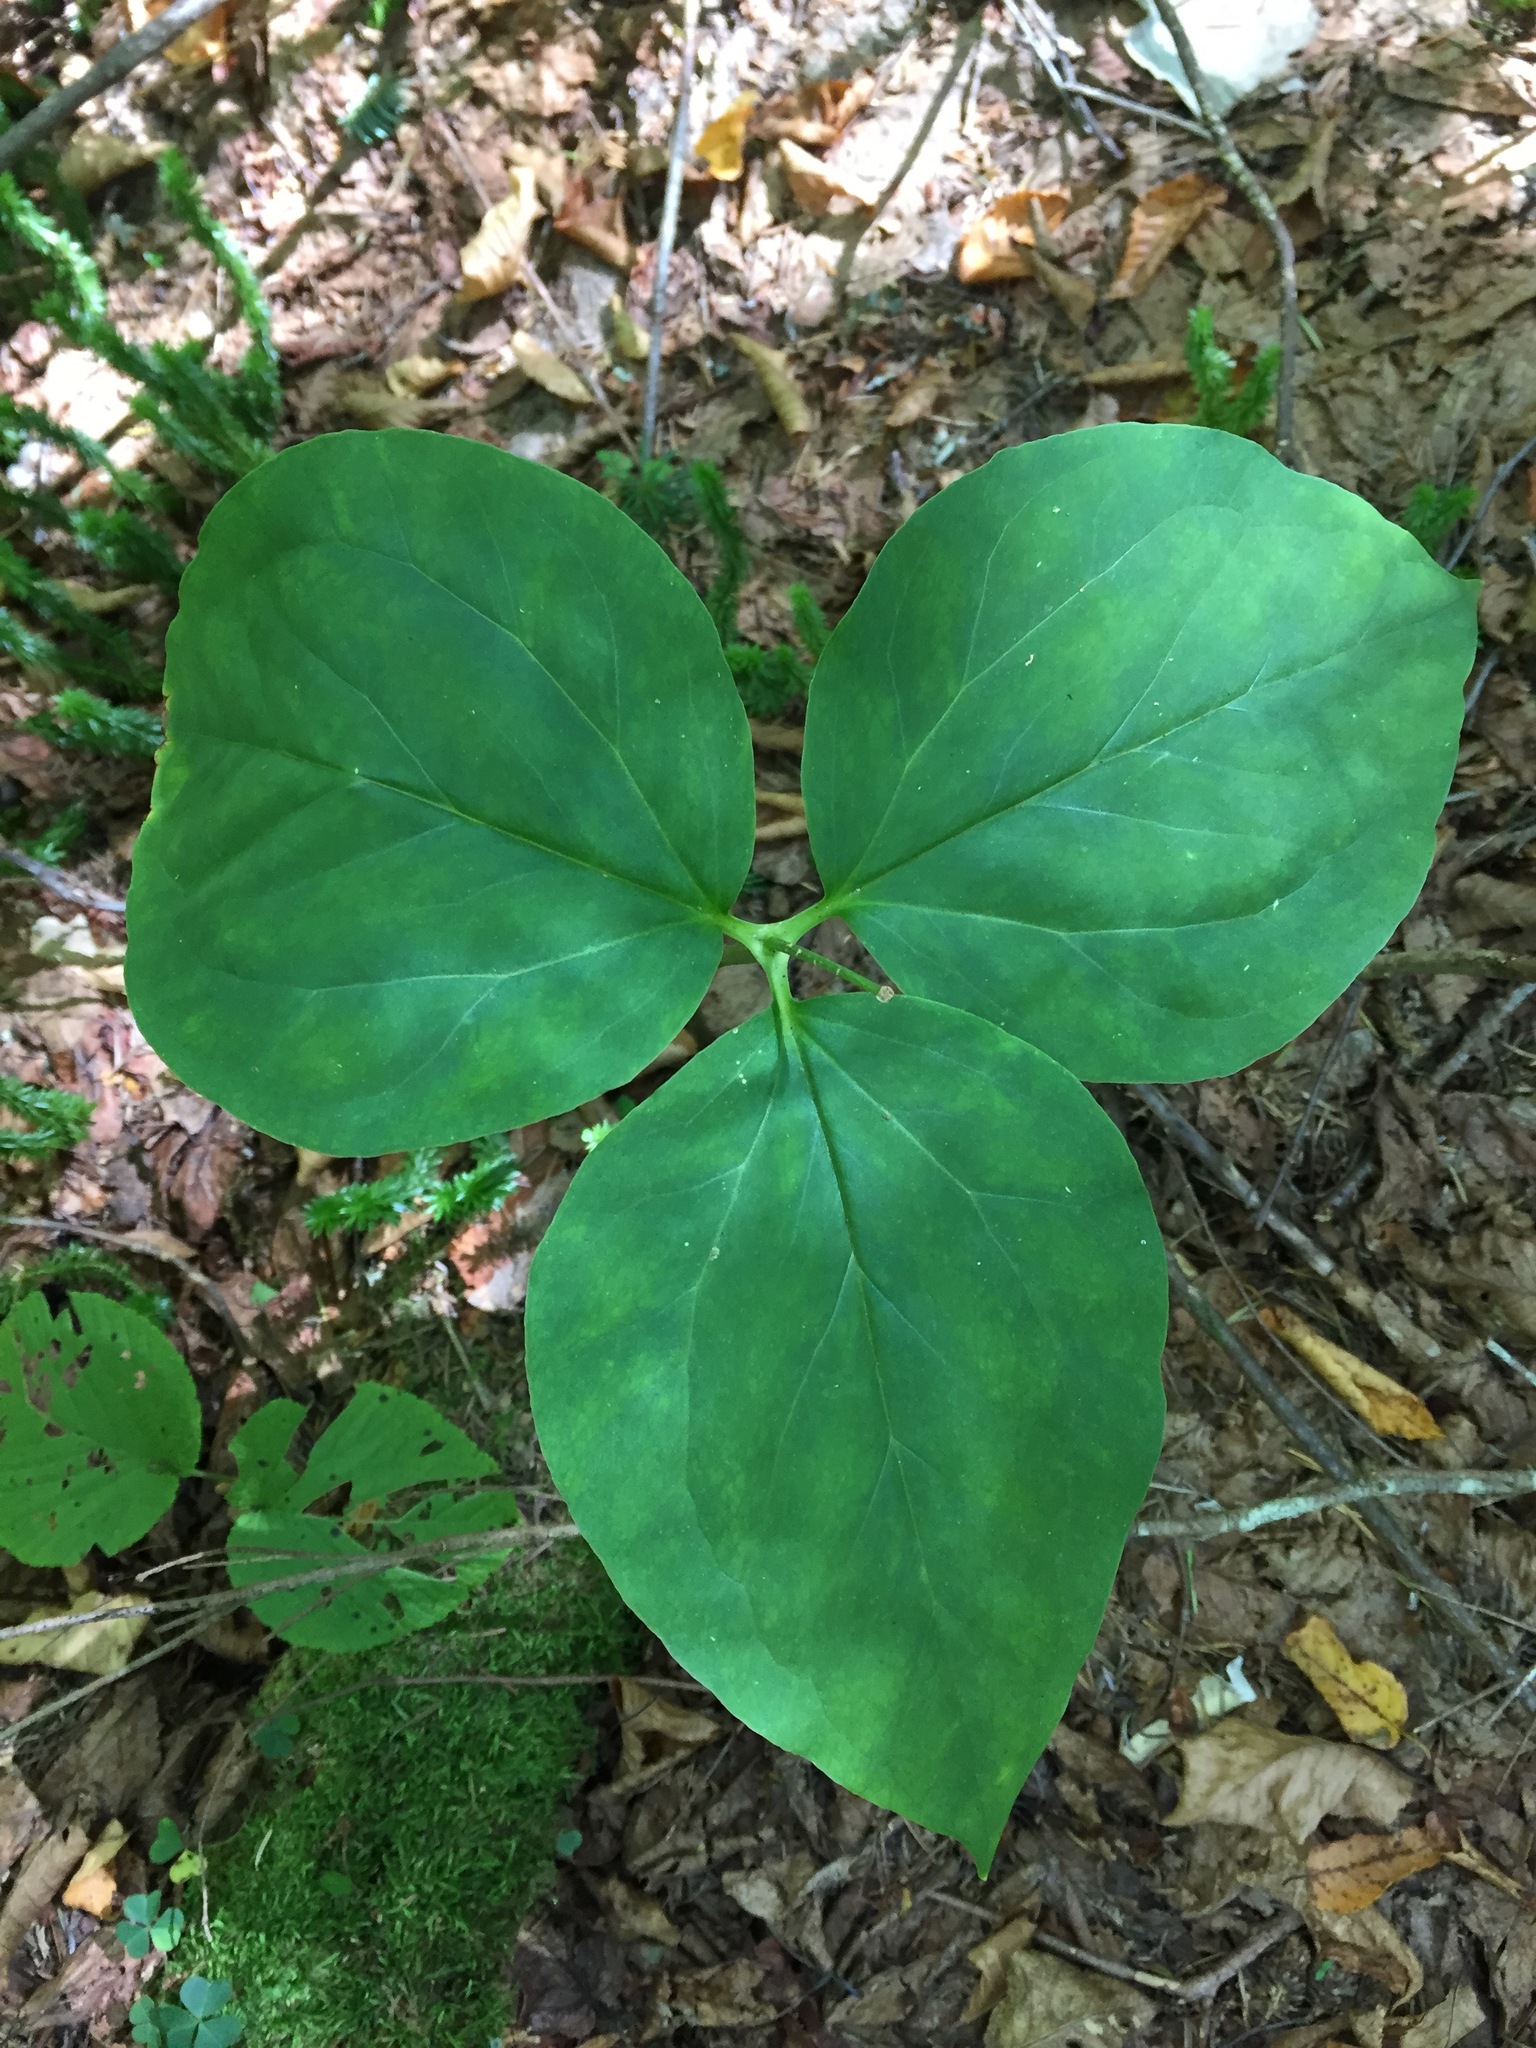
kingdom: Plantae
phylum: Tracheophyta
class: Liliopsida
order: Liliales
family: Melanthiaceae
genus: Trillium
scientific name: Trillium undulatum
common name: Paint trillium
